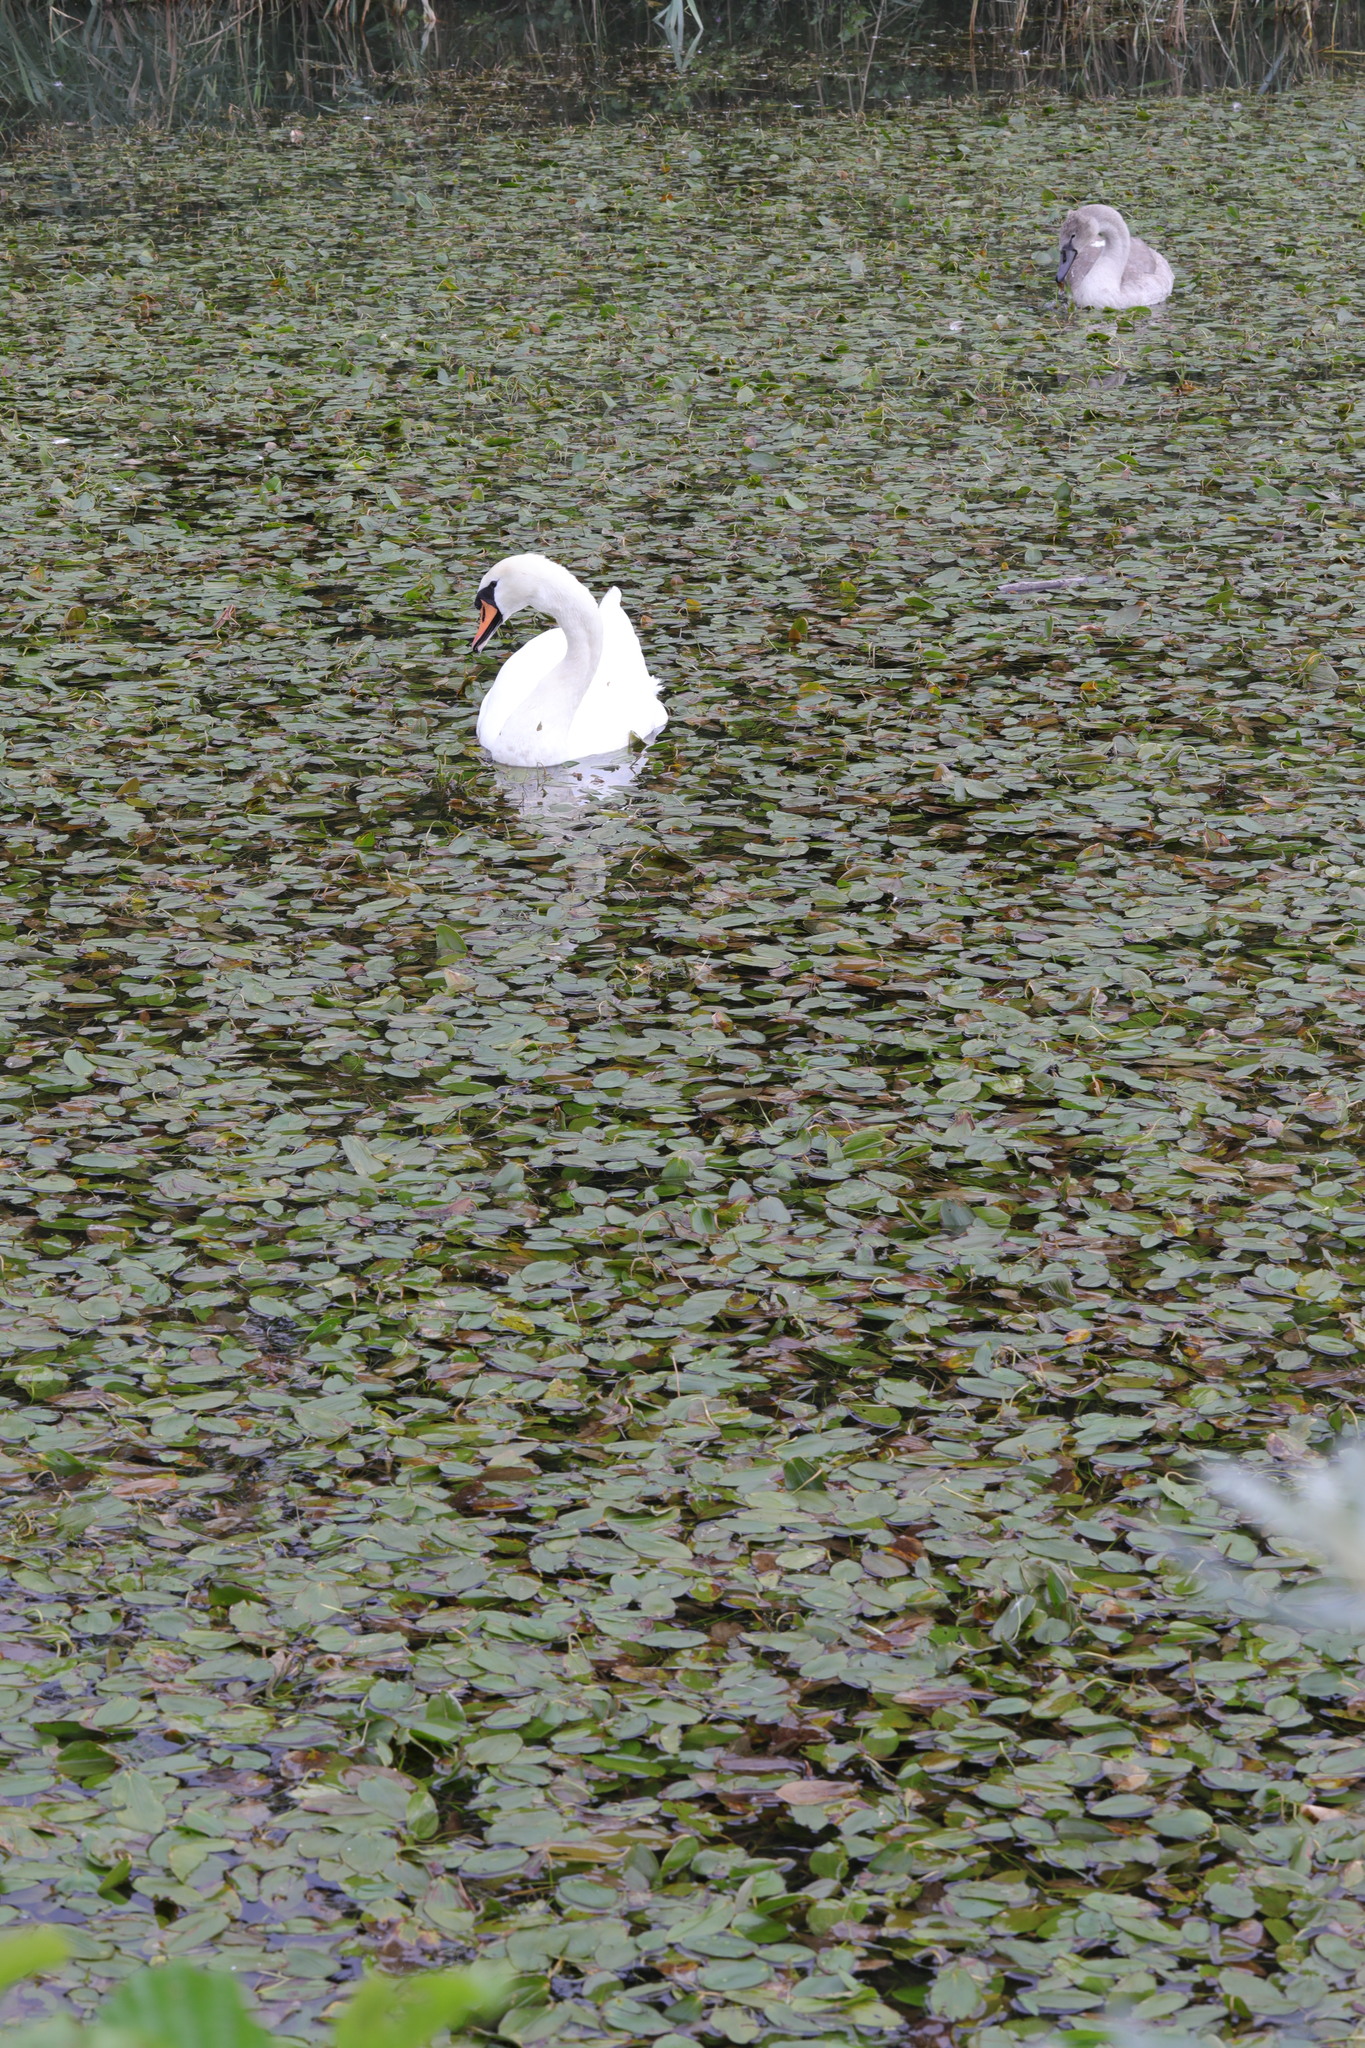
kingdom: Animalia
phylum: Chordata
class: Aves
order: Anseriformes
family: Anatidae
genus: Cygnus
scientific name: Cygnus olor
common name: Mute swan
